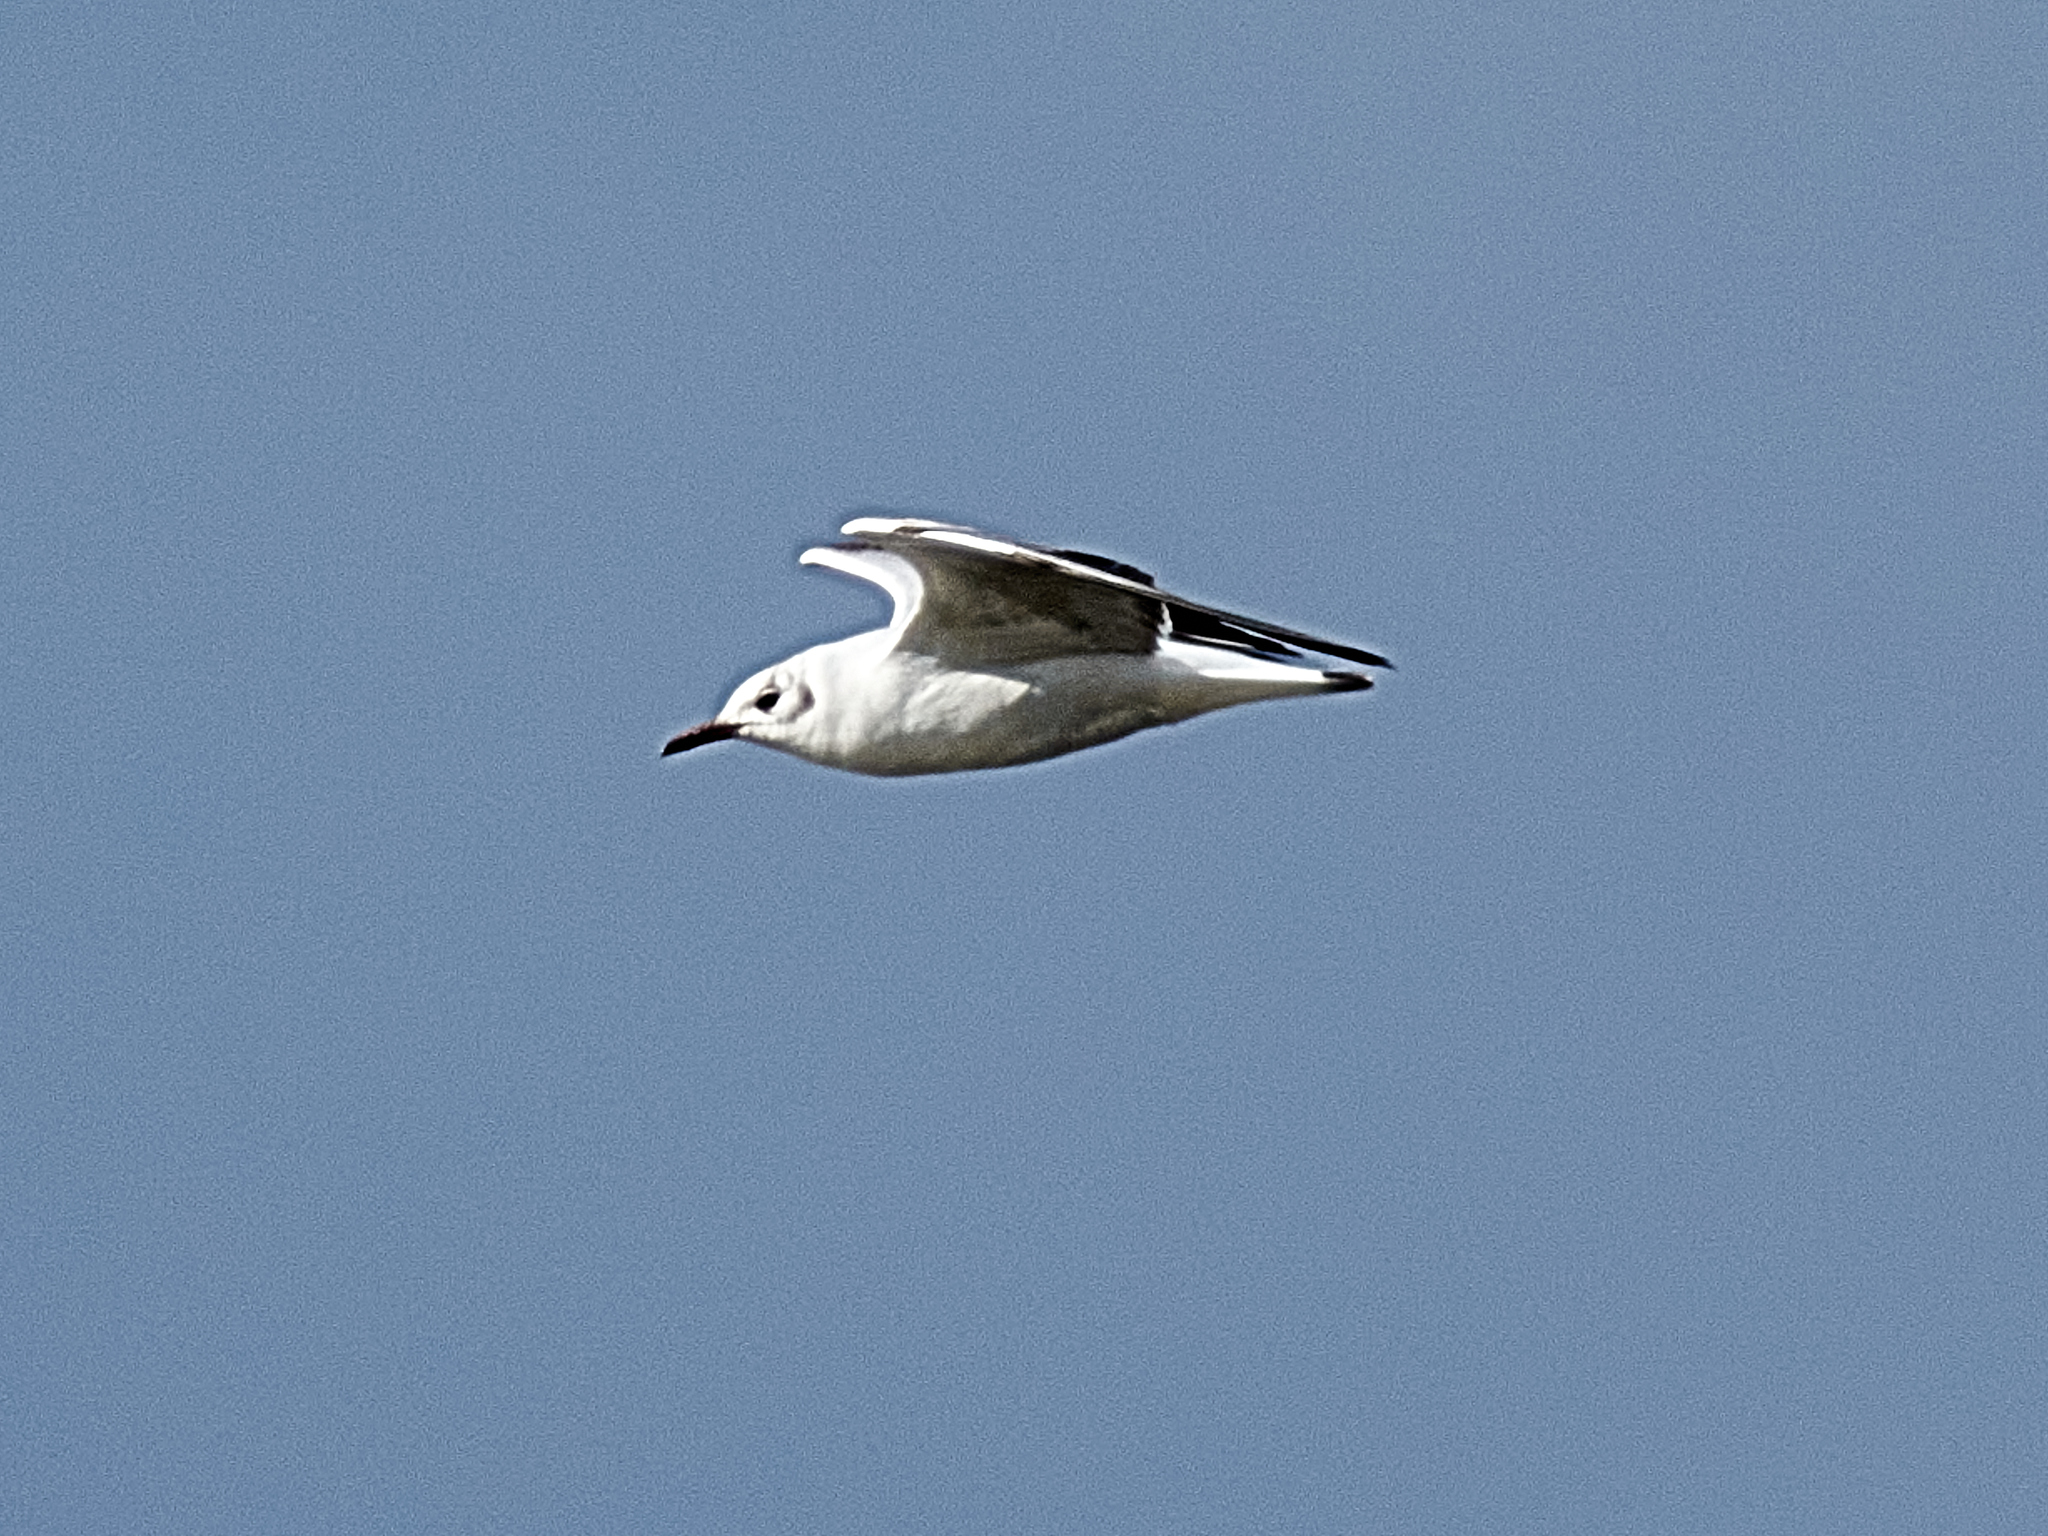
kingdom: Animalia
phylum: Chordata
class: Aves
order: Charadriiformes
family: Laridae
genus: Chroicocephalus
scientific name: Chroicocephalus ridibundus
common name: Black-headed gull
